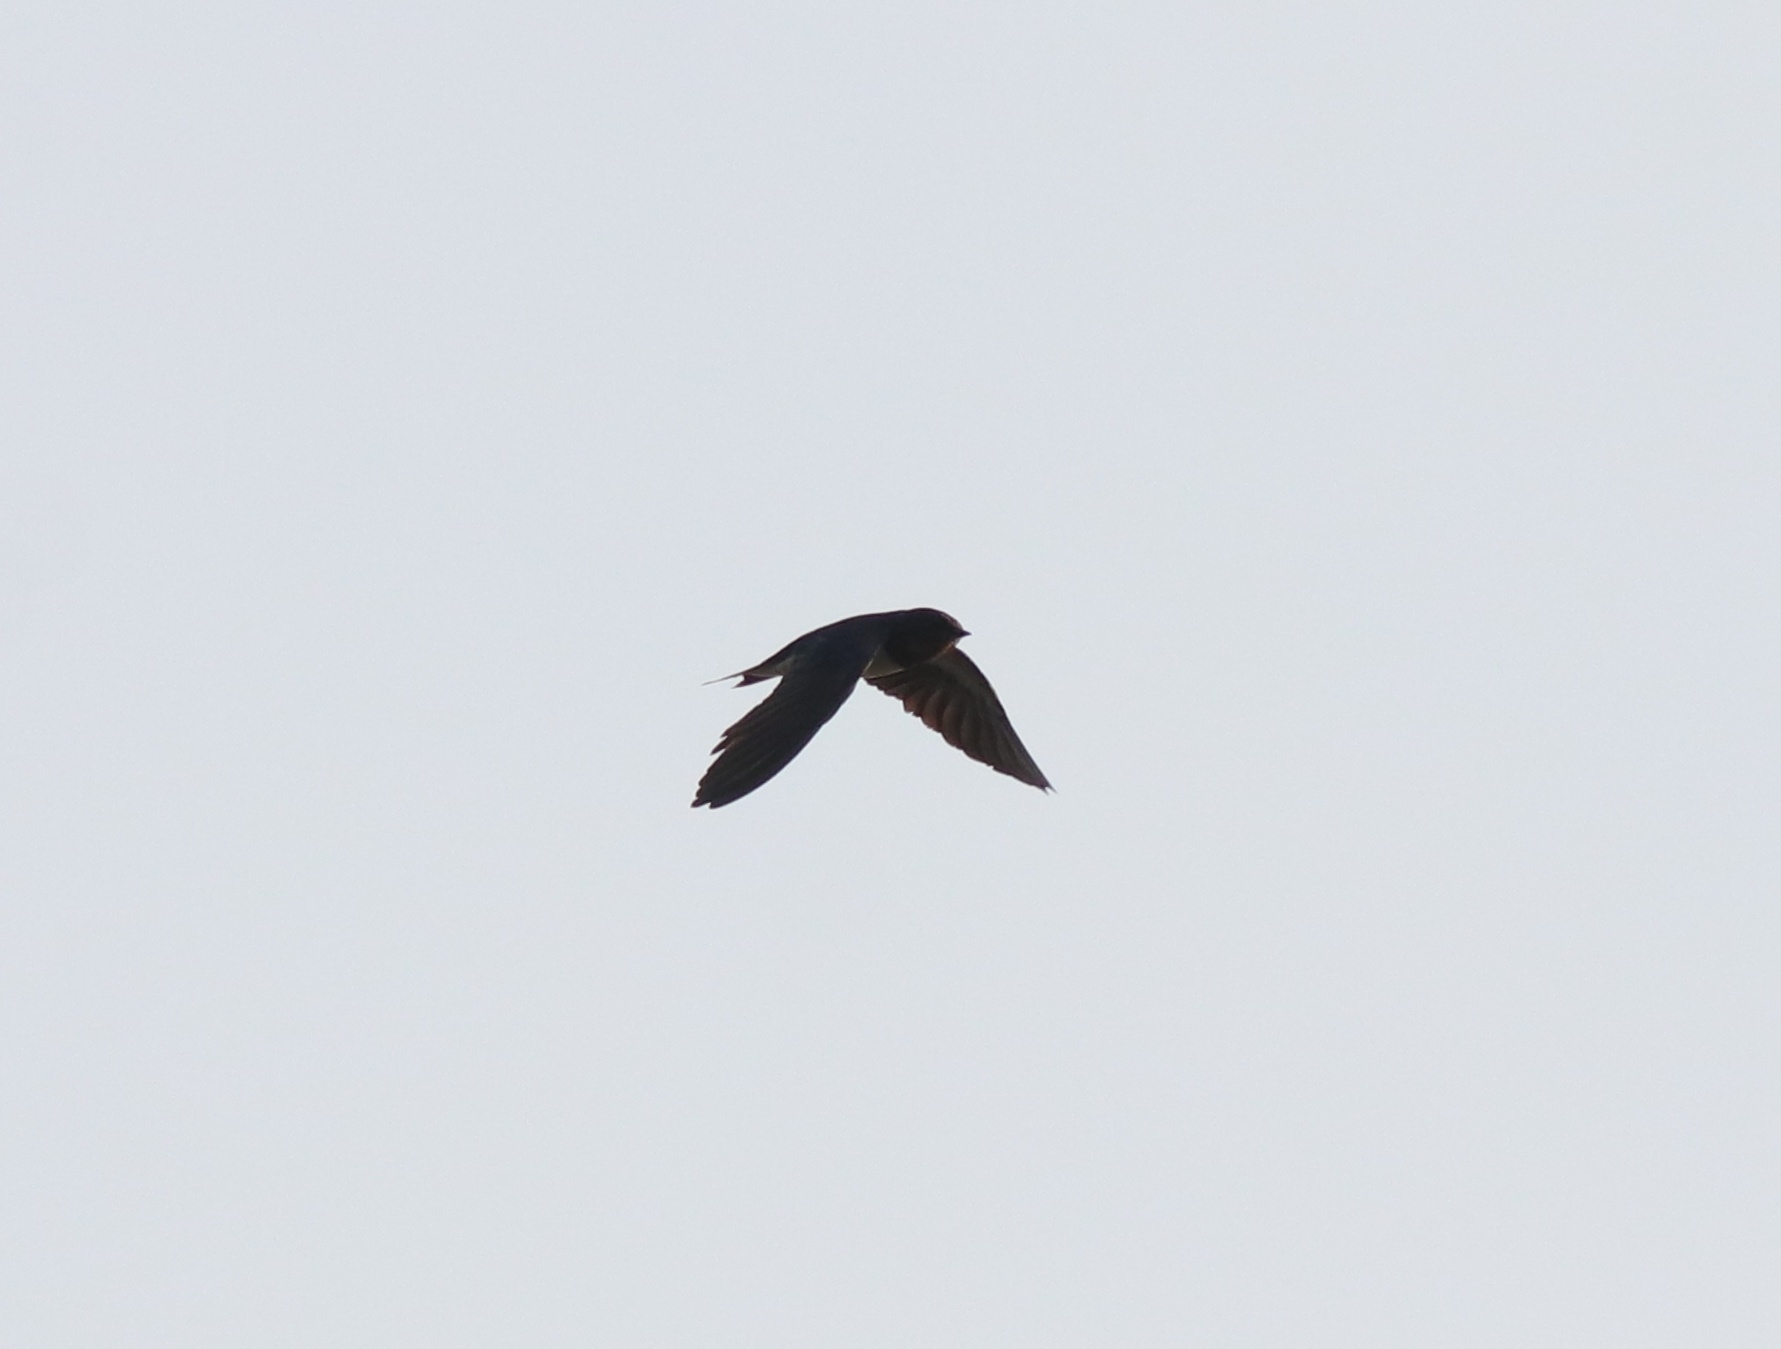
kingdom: Animalia
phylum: Chordata
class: Aves
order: Passeriformes
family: Hirundinidae
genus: Hirundo
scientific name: Hirundo rustica
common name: Barn swallow
